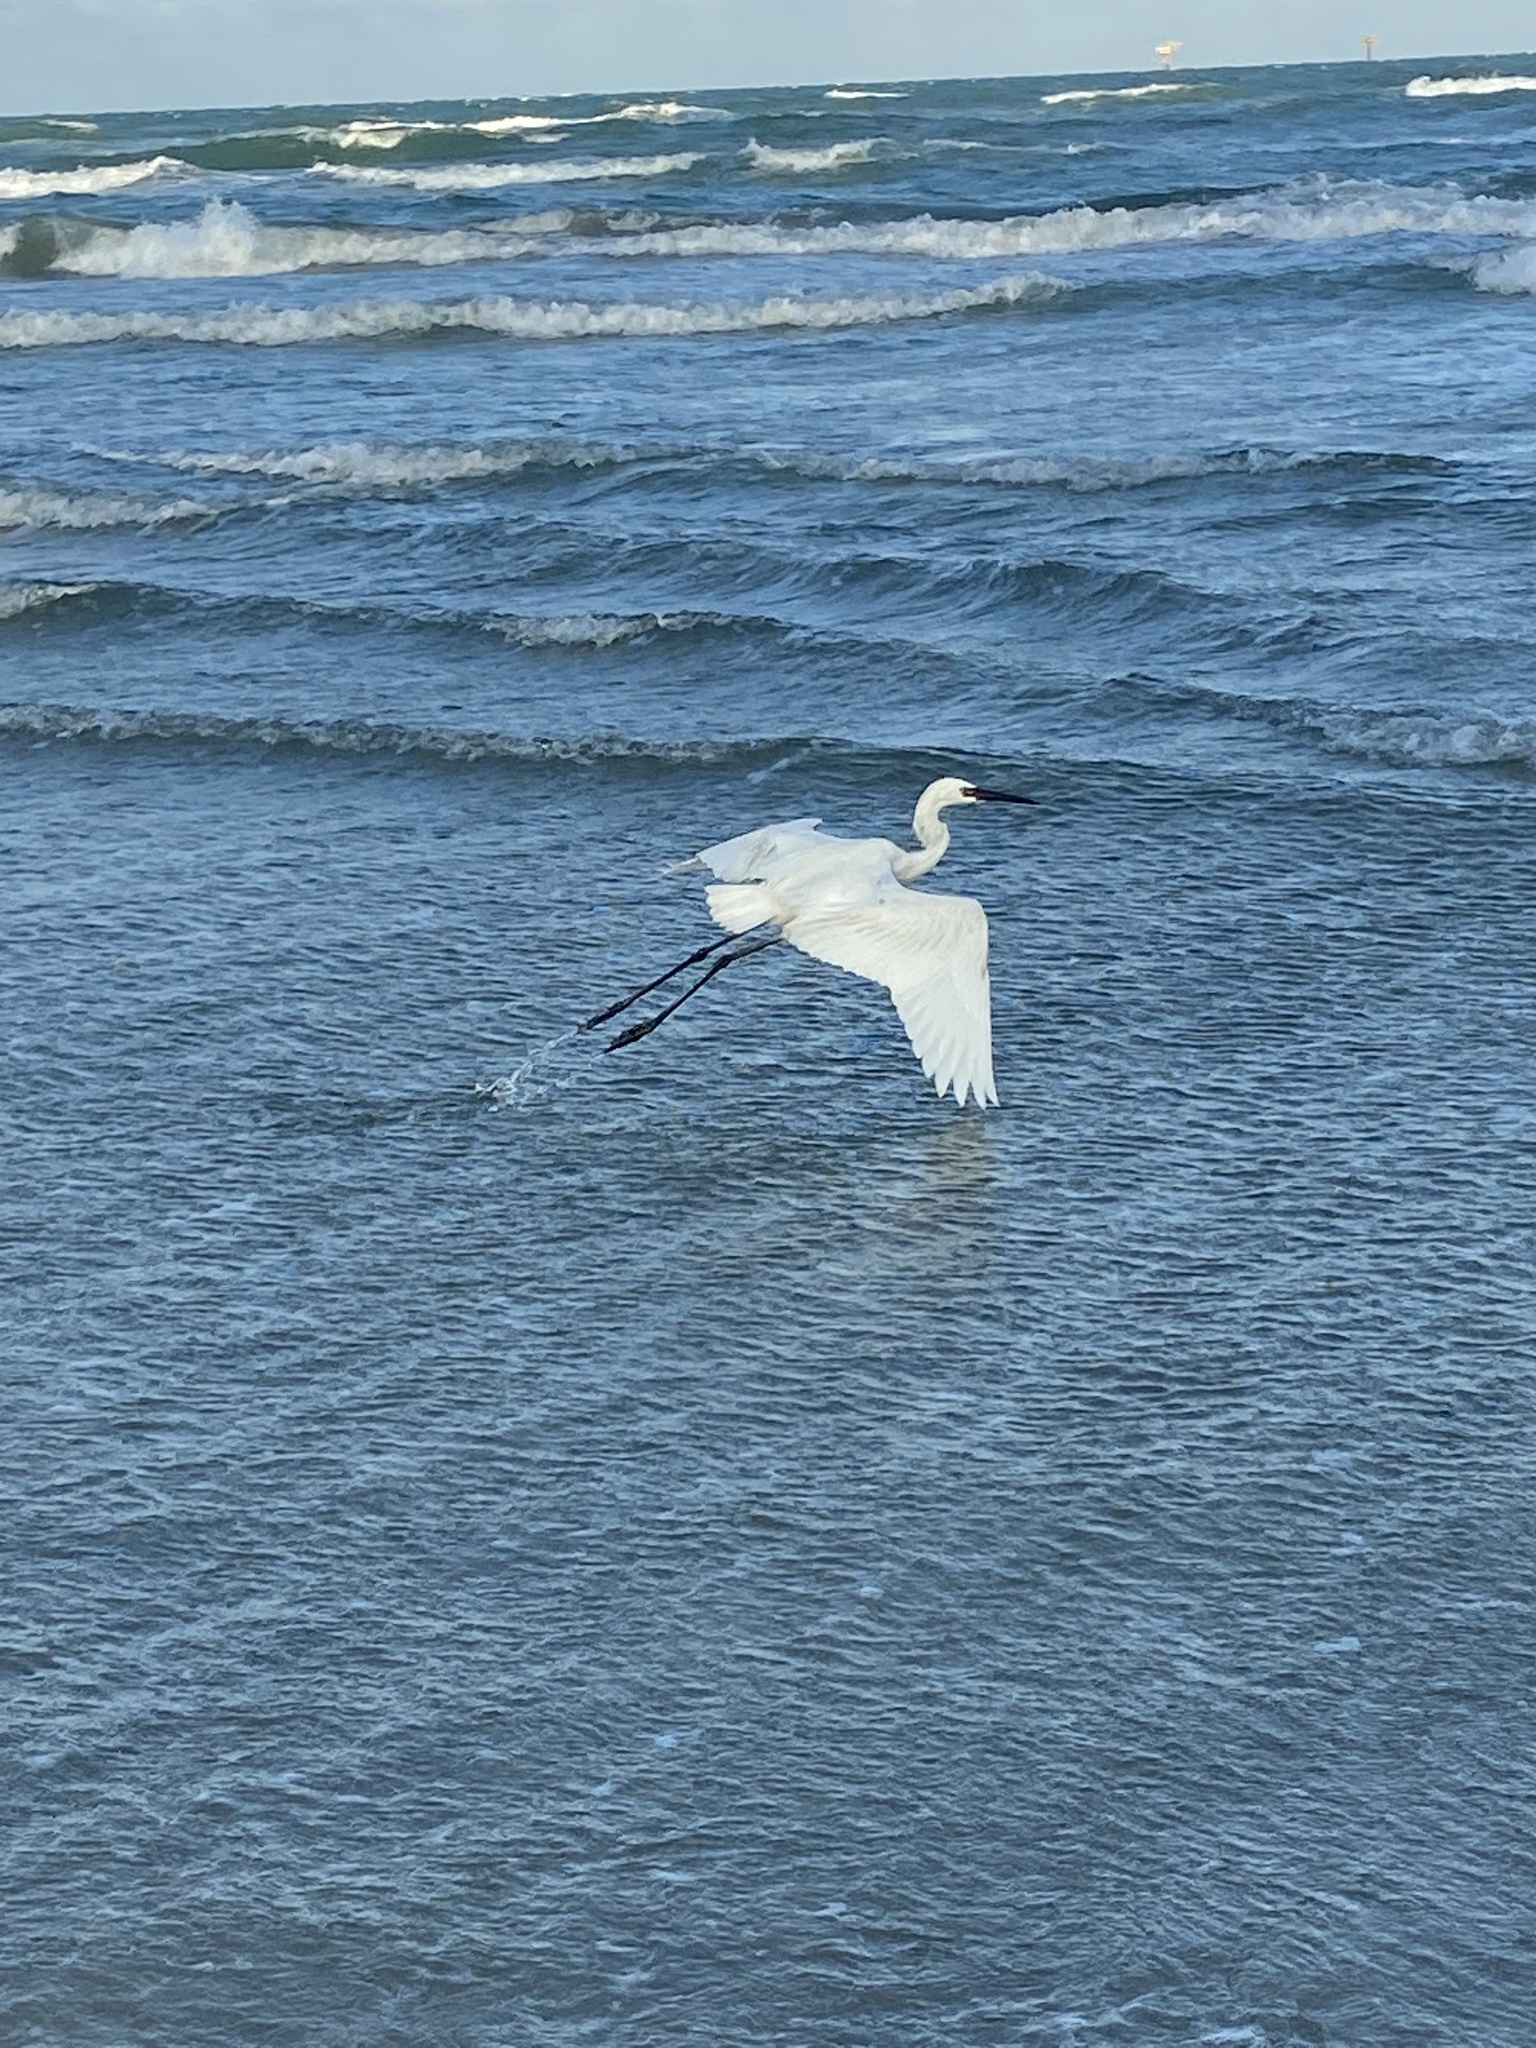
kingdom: Animalia
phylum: Chordata
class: Aves
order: Pelecaniformes
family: Ardeidae
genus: Egretta
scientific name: Egretta rufescens
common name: Reddish egret
